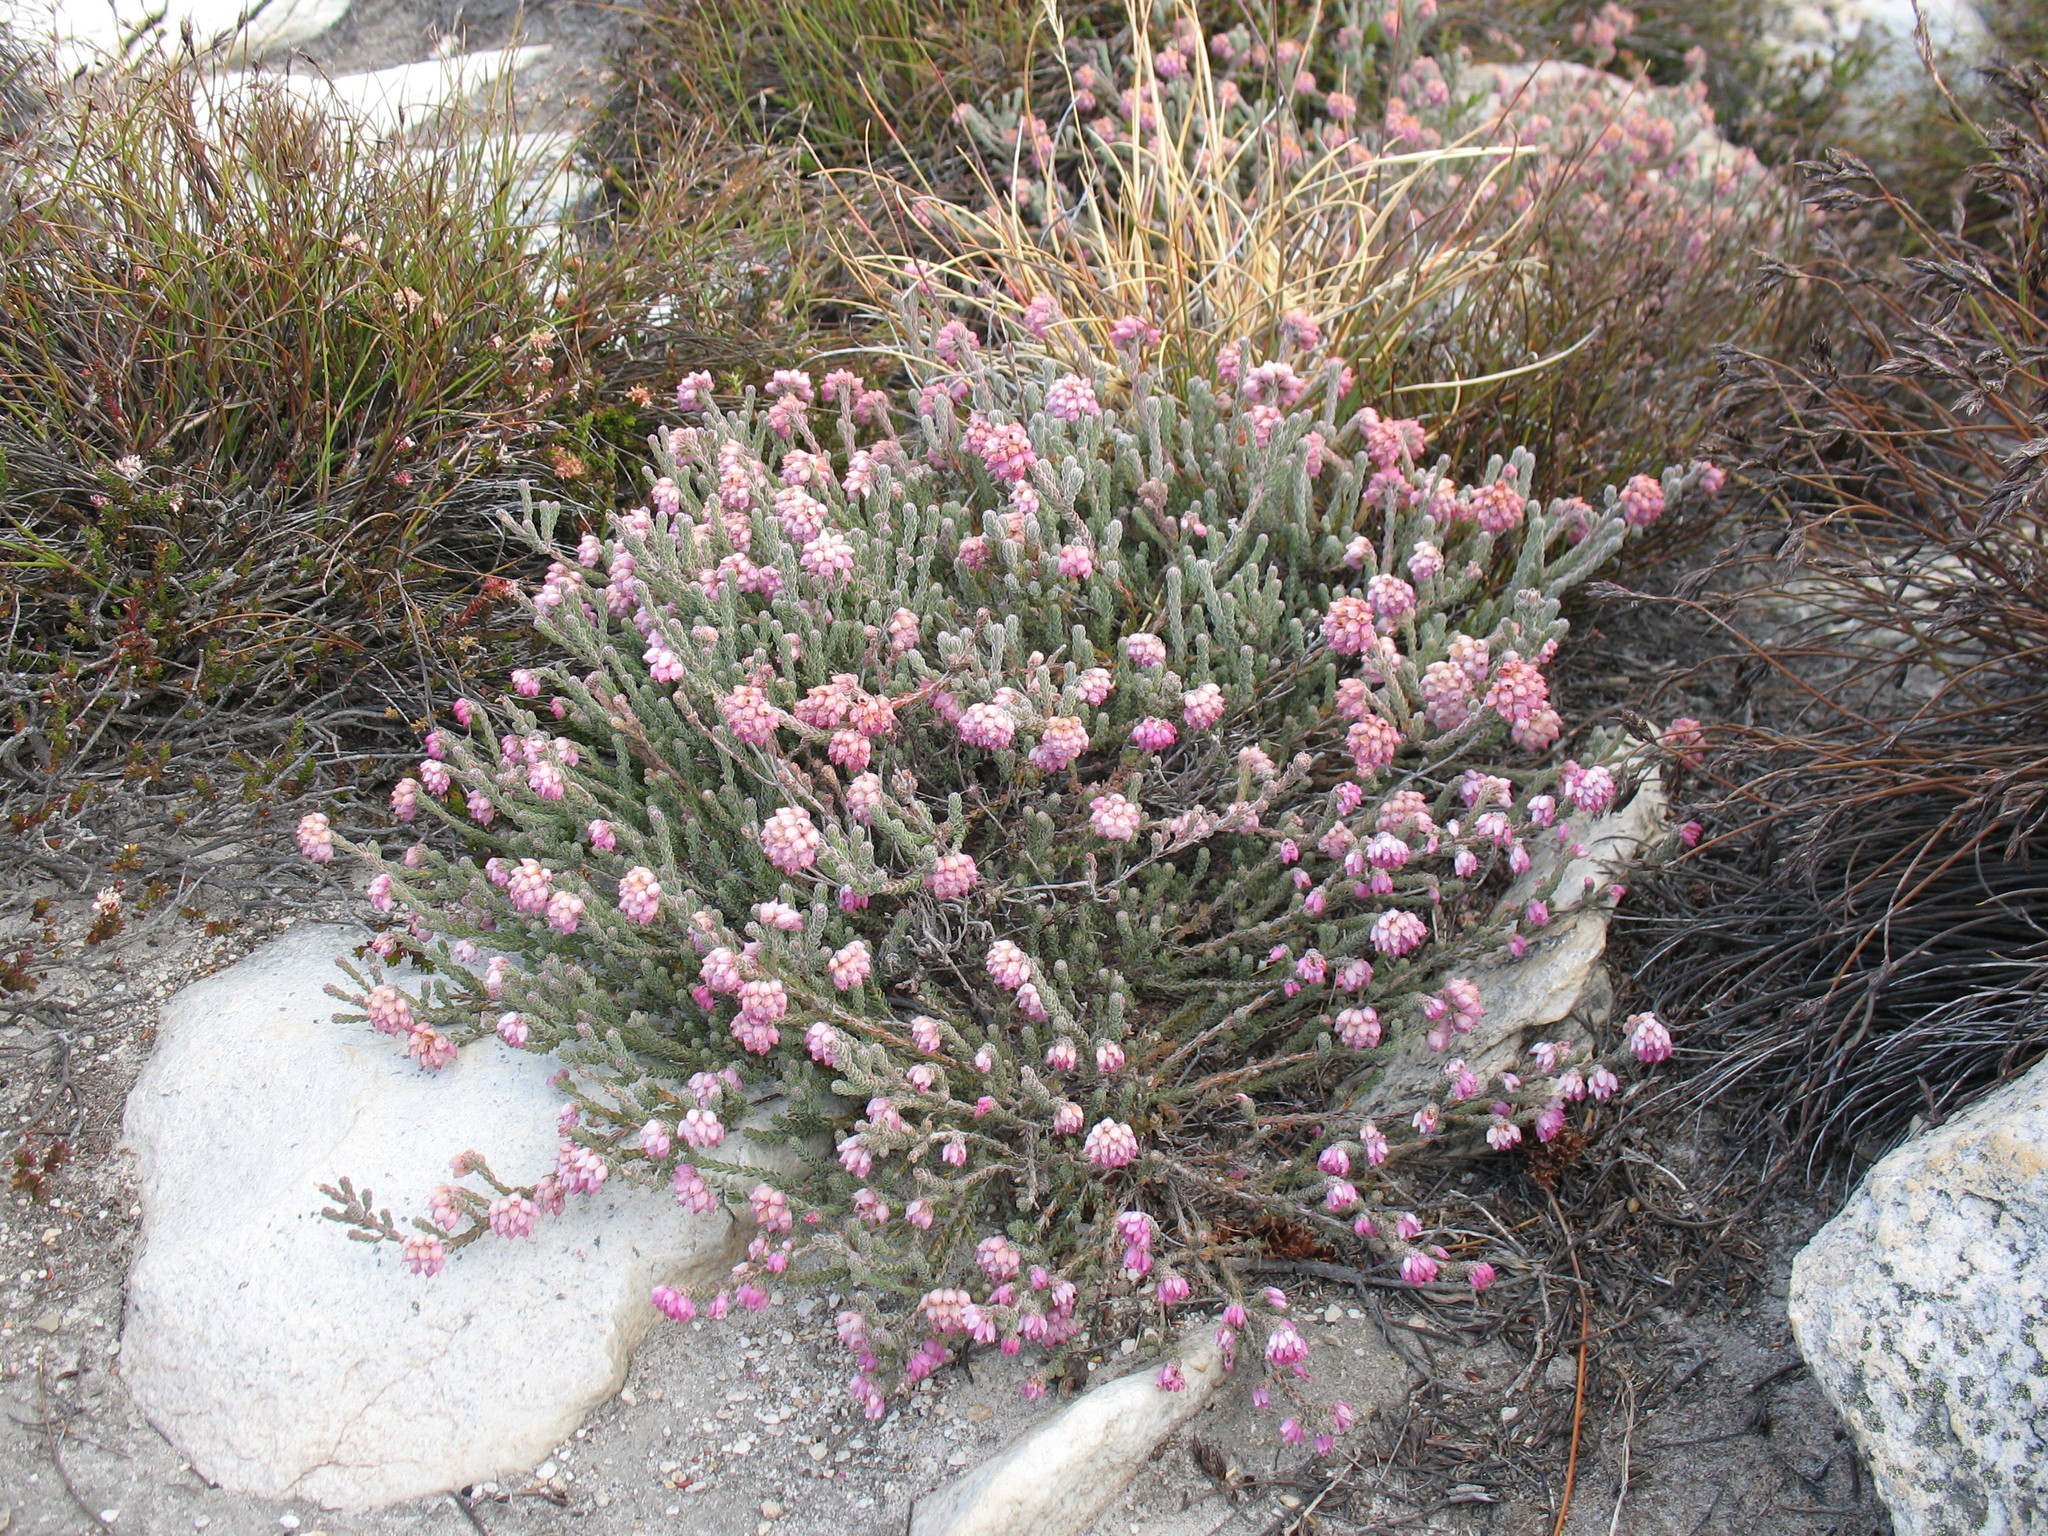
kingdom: Plantae
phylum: Tracheophyta
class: Magnoliopsida
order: Ericales
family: Ericaceae
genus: Erica
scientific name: Erica maderi
